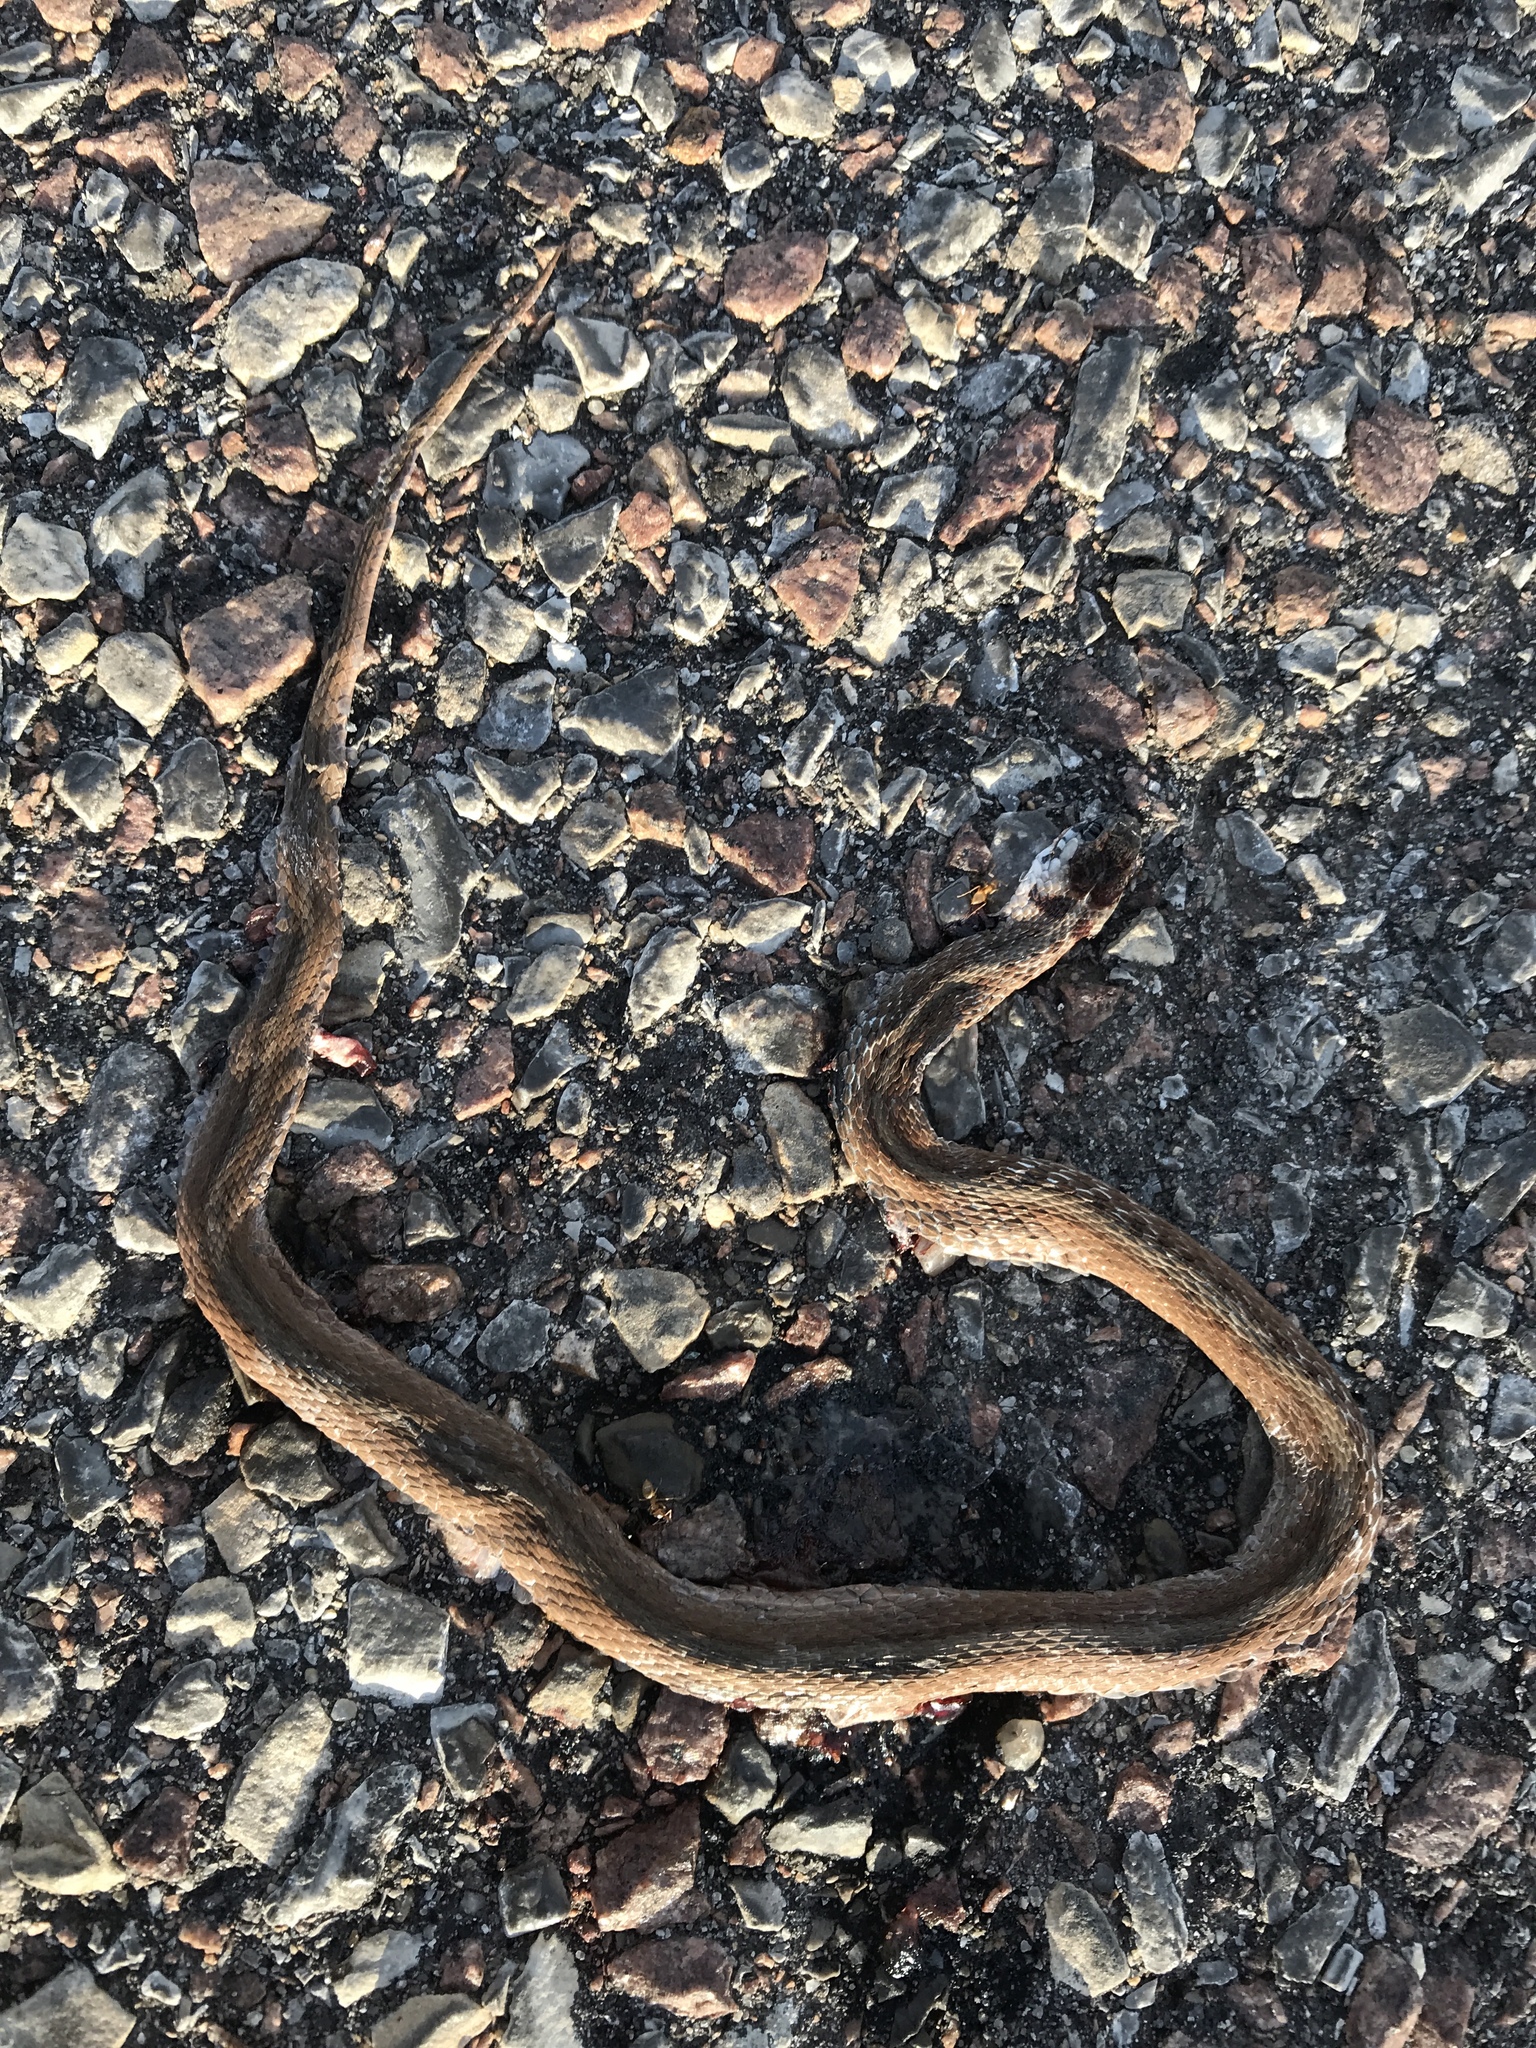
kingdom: Animalia
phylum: Chordata
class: Squamata
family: Colubridae
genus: Storeria
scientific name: Storeria dekayi
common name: (dekay’s) brown snake
